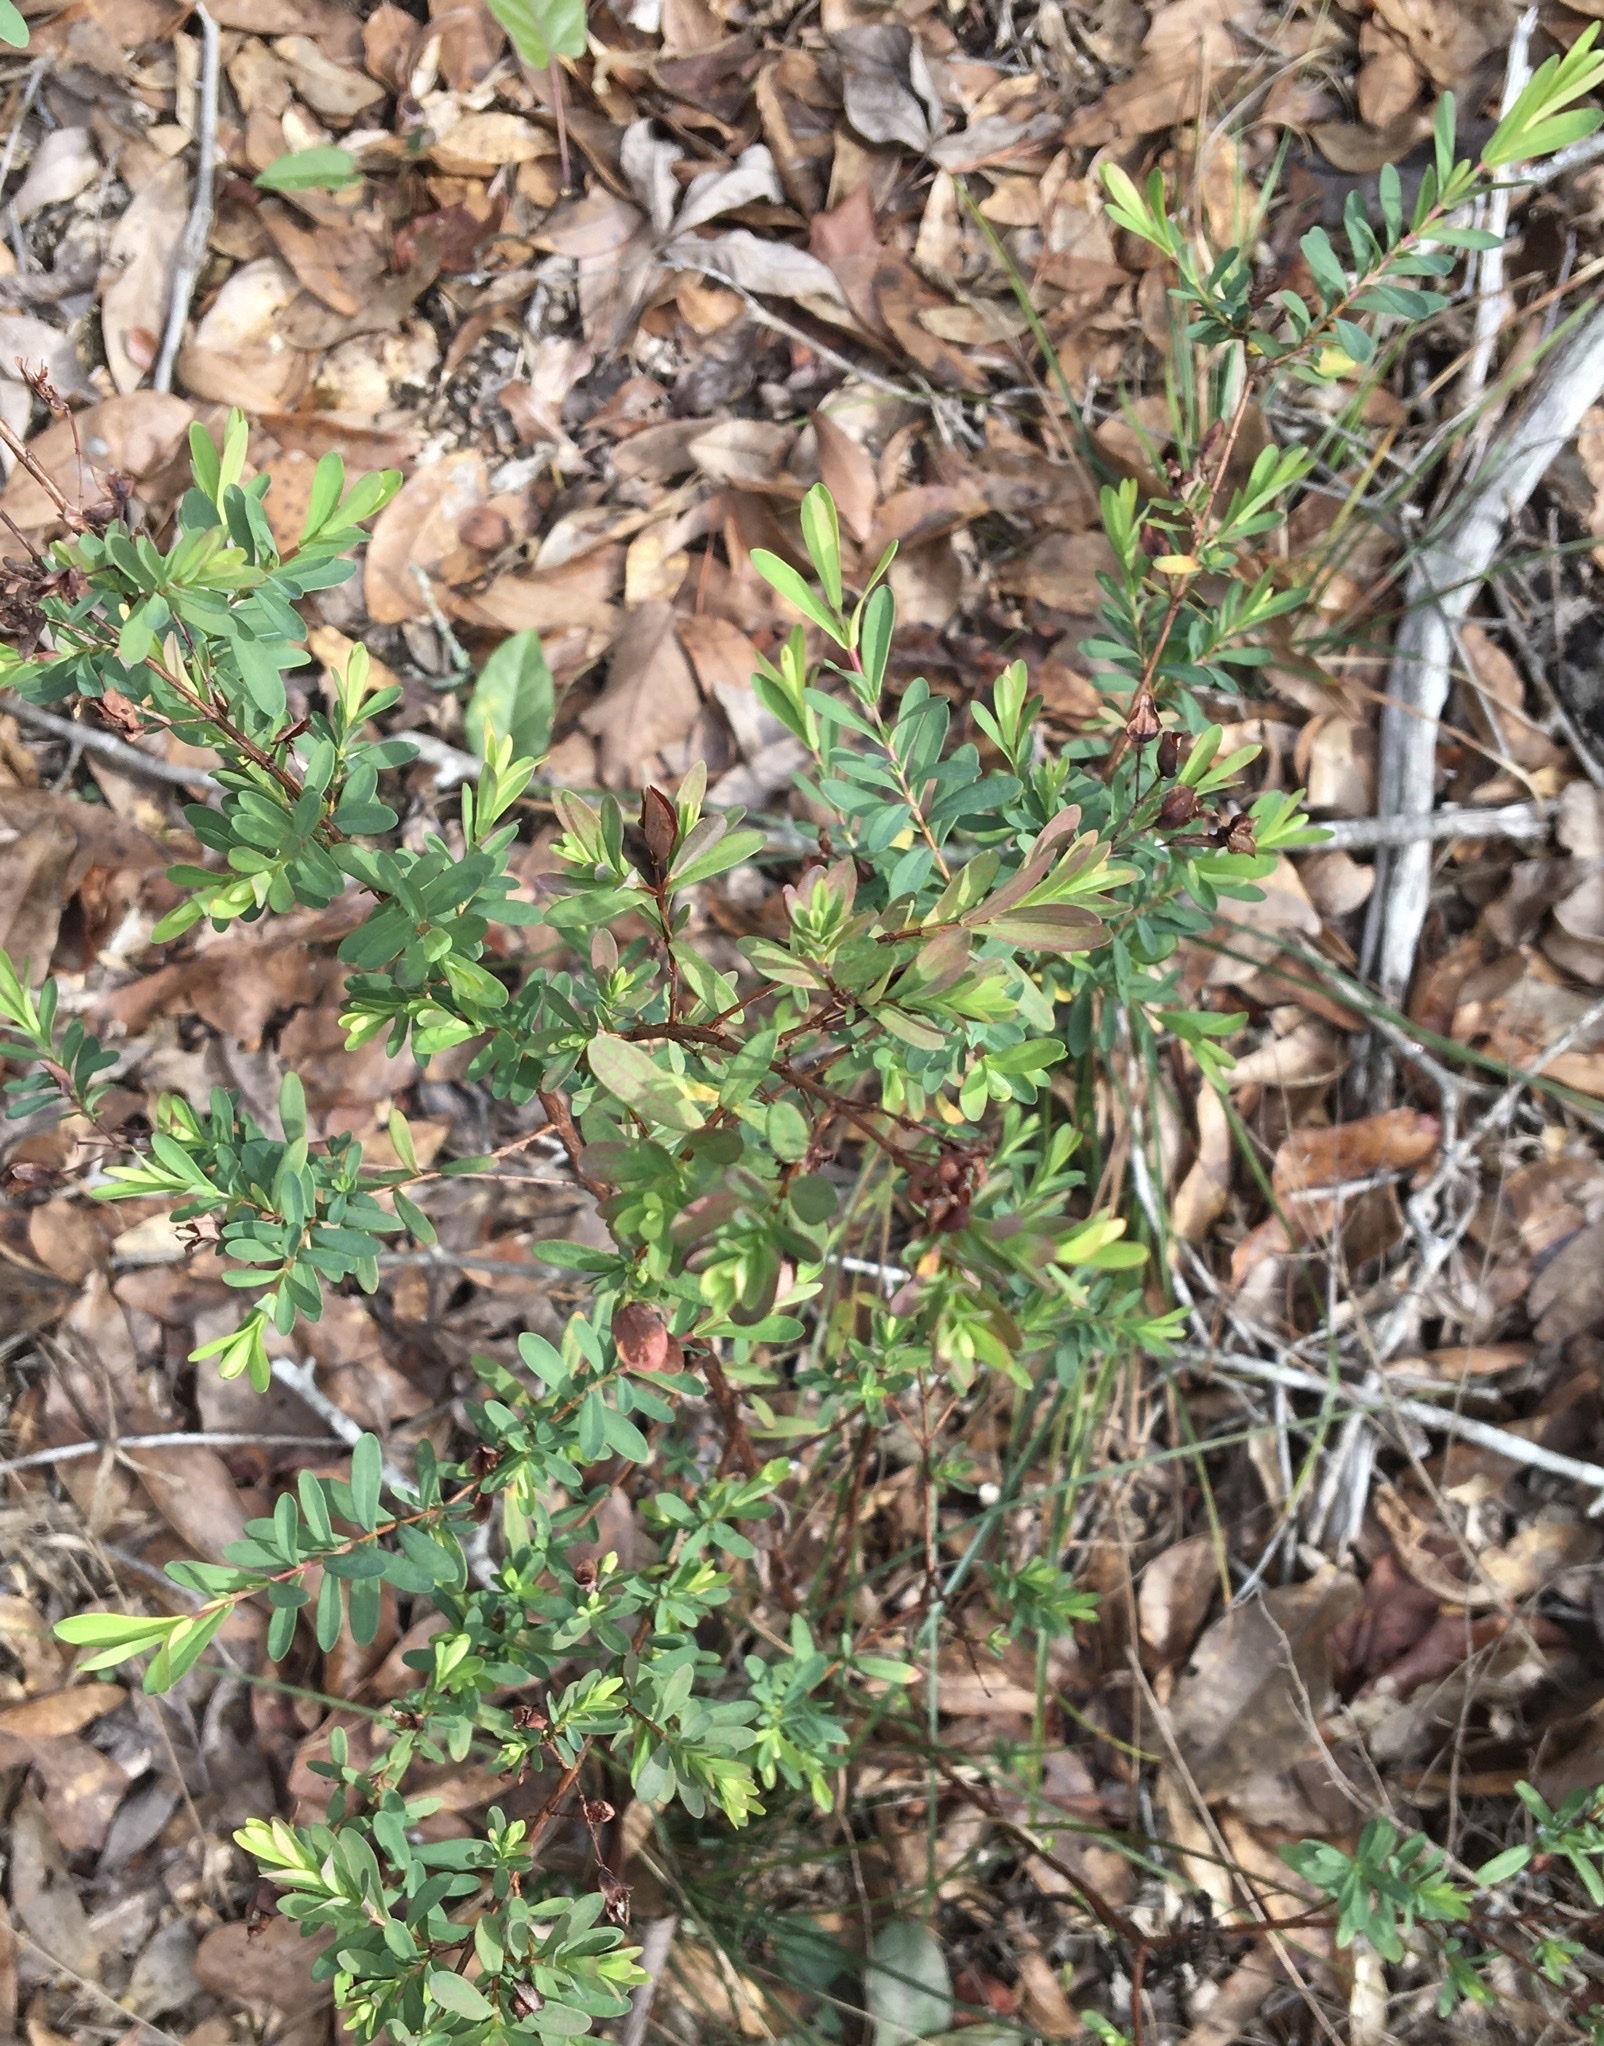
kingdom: Plantae
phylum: Tracheophyta
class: Magnoliopsida
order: Malpighiales
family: Hypericaceae
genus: Hypericum
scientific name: Hypericum hypericoides
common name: St. andrew's cross
